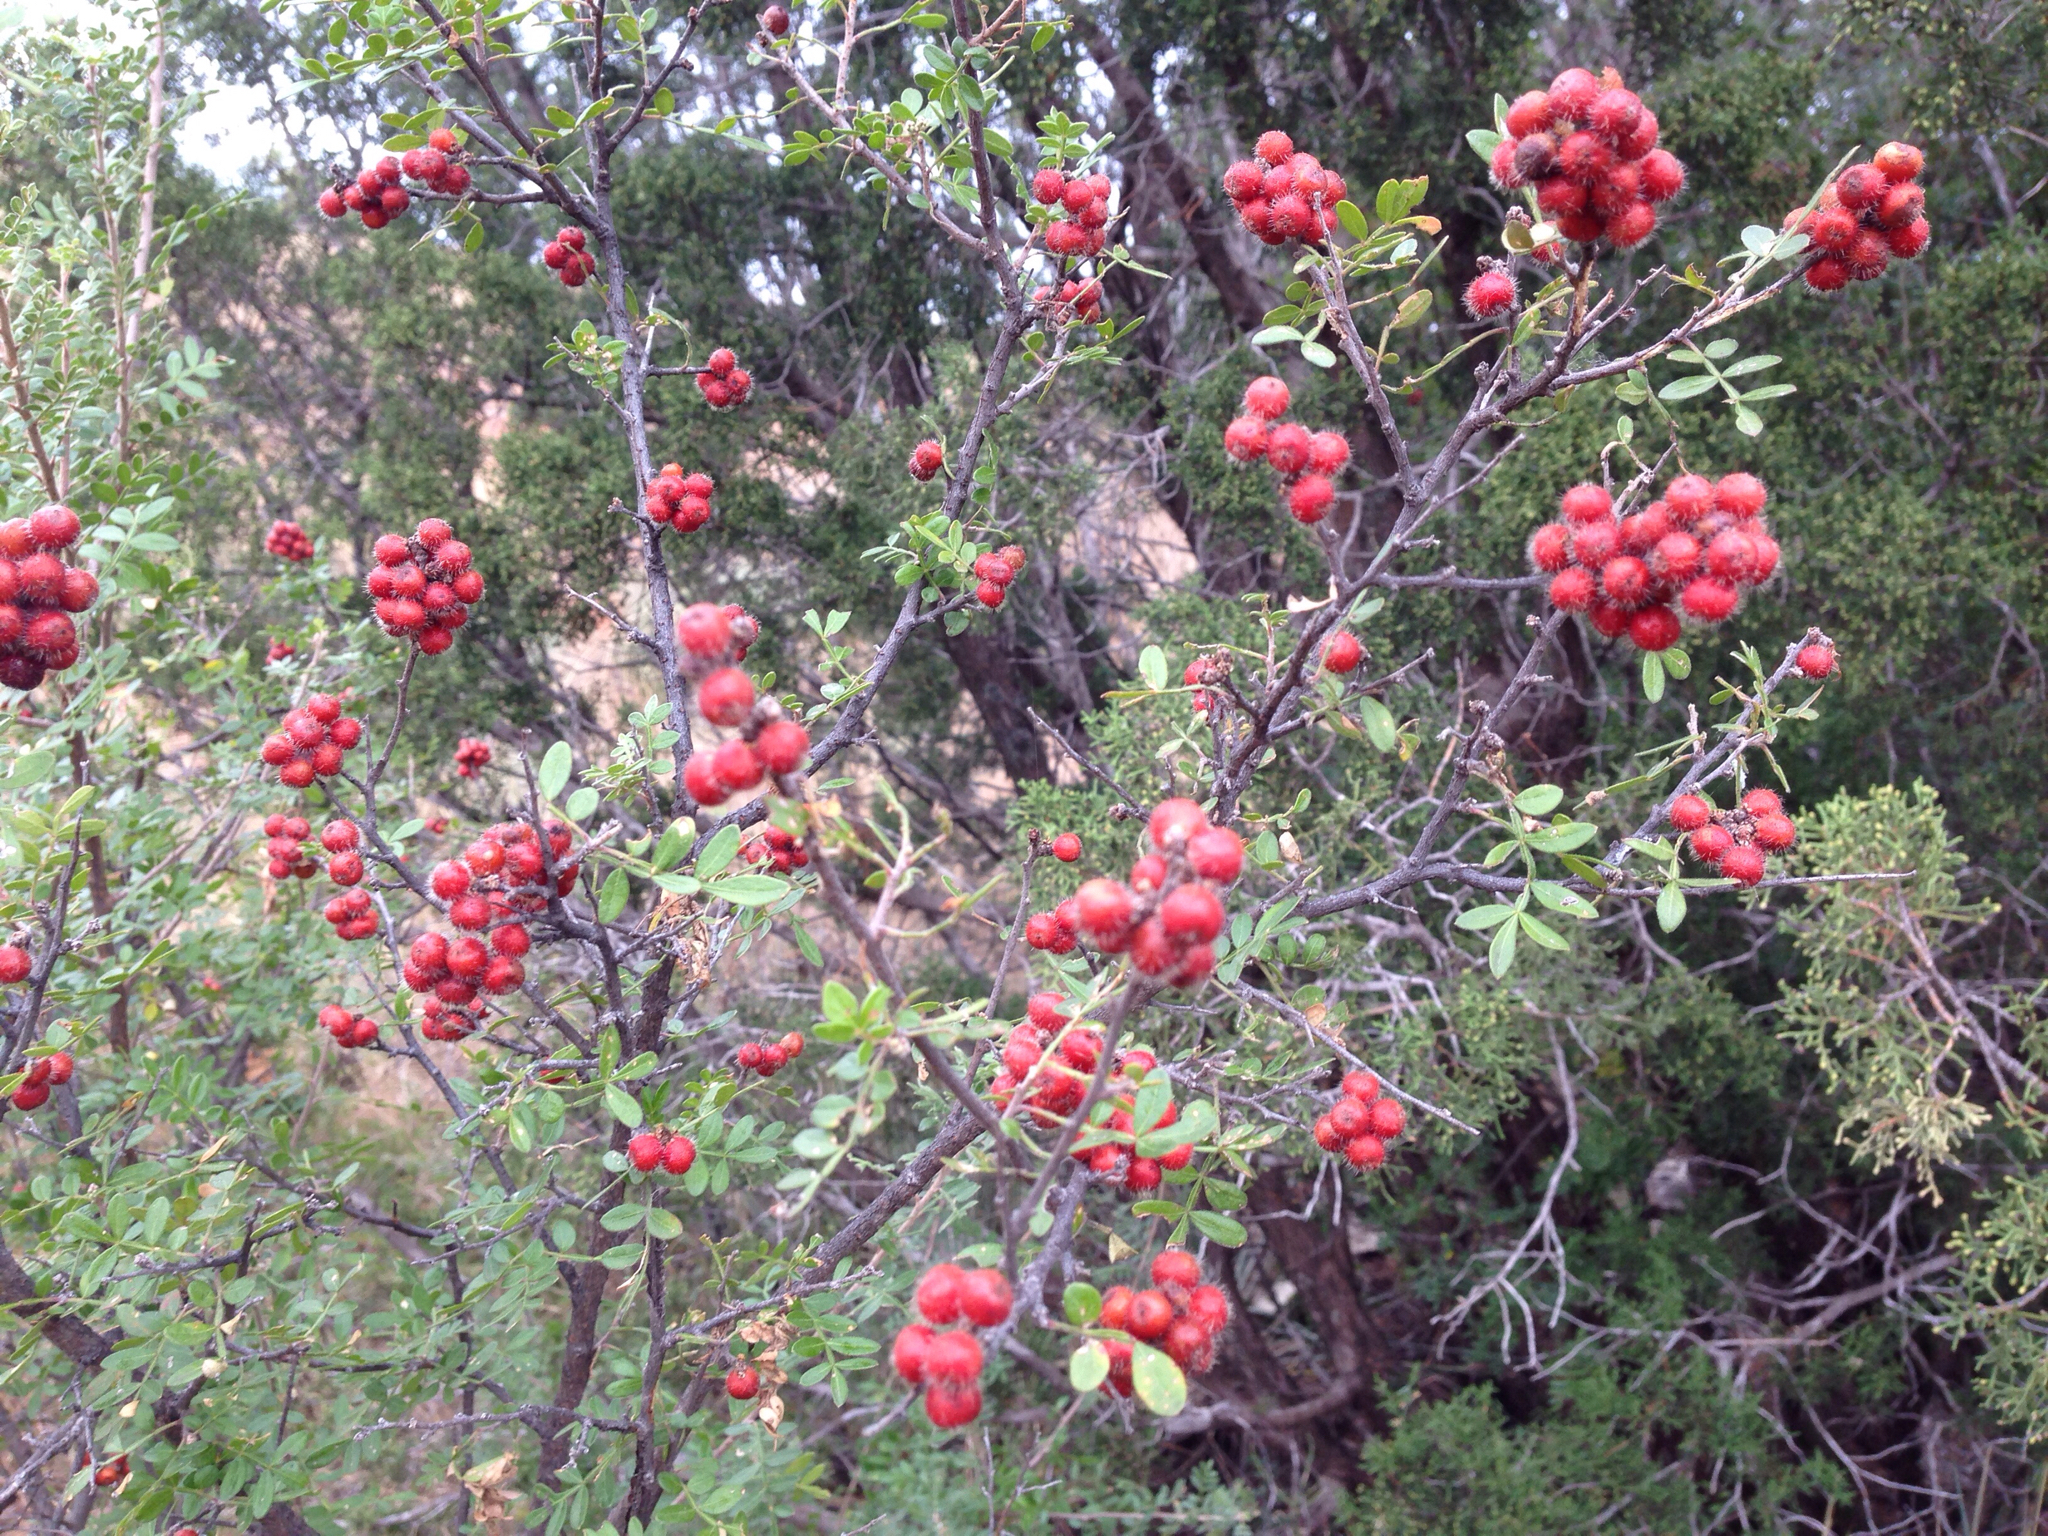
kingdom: Plantae
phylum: Tracheophyta
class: Magnoliopsida
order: Sapindales
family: Anacardiaceae
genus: Rhus
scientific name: Rhus microphylla
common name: Desert sumac
